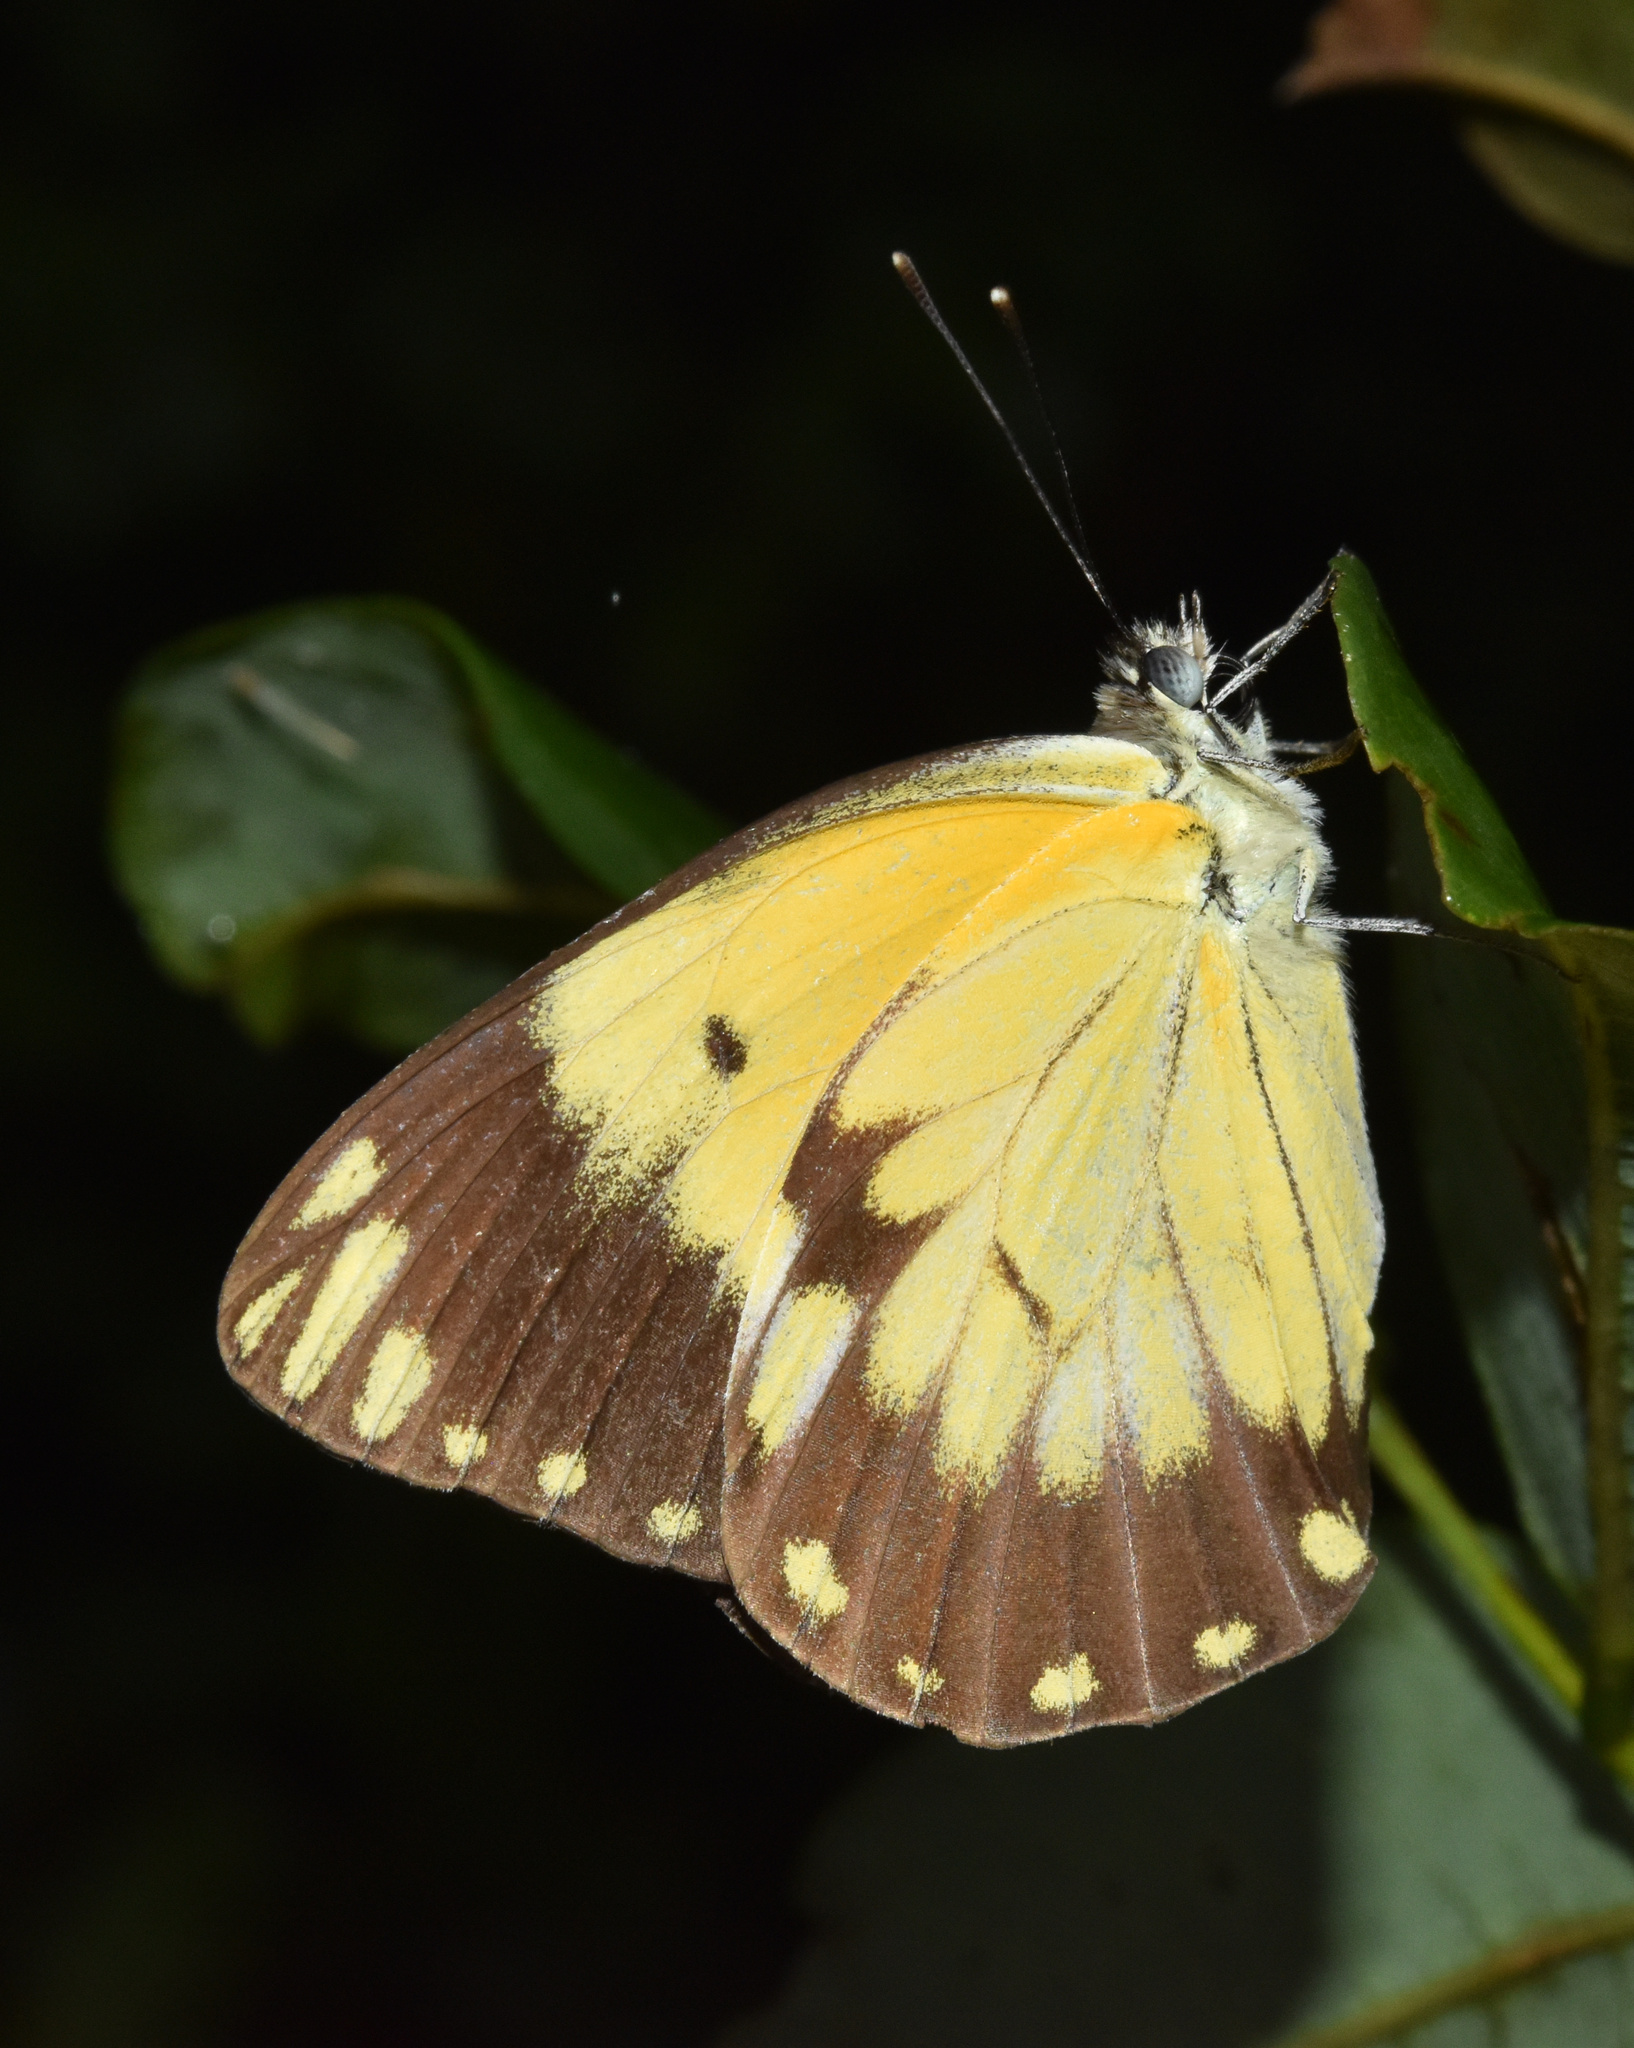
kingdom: Animalia
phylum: Arthropoda
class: Insecta
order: Lepidoptera
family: Pieridae
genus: Belenois
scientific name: Belenois creona
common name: African caper white
